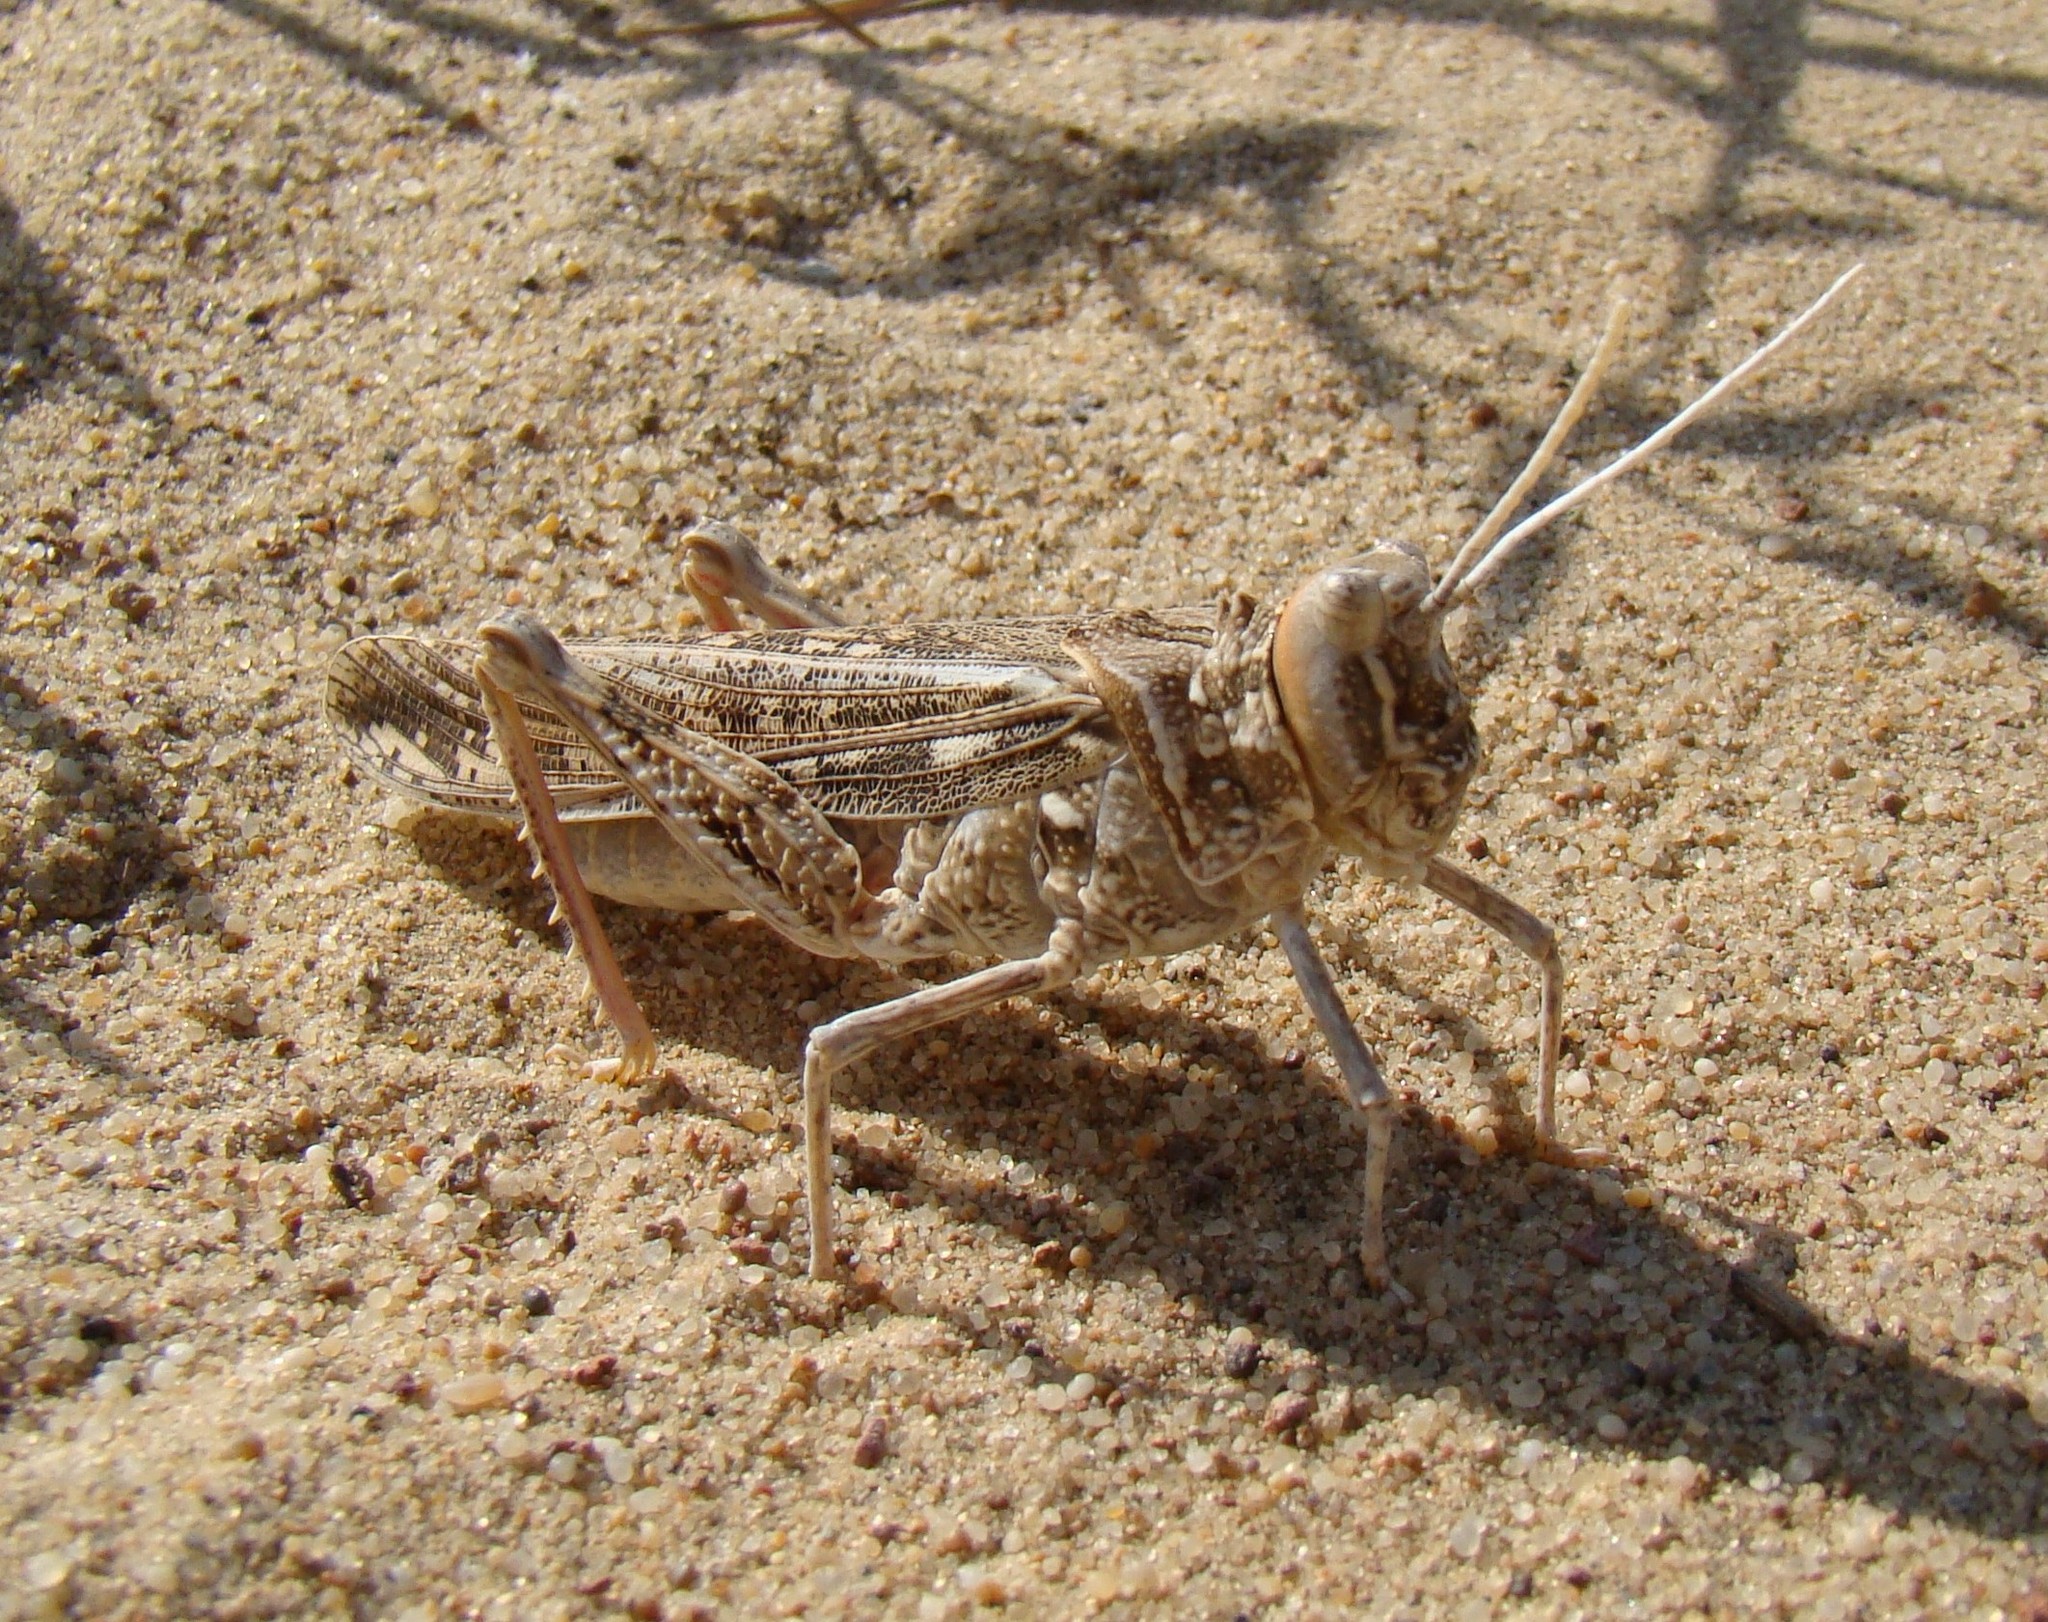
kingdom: Animalia
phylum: Arthropoda
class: Insecta
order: Orthoptera
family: Pamphagidae
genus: Thrinchus
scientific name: Thrinchus arenosus
